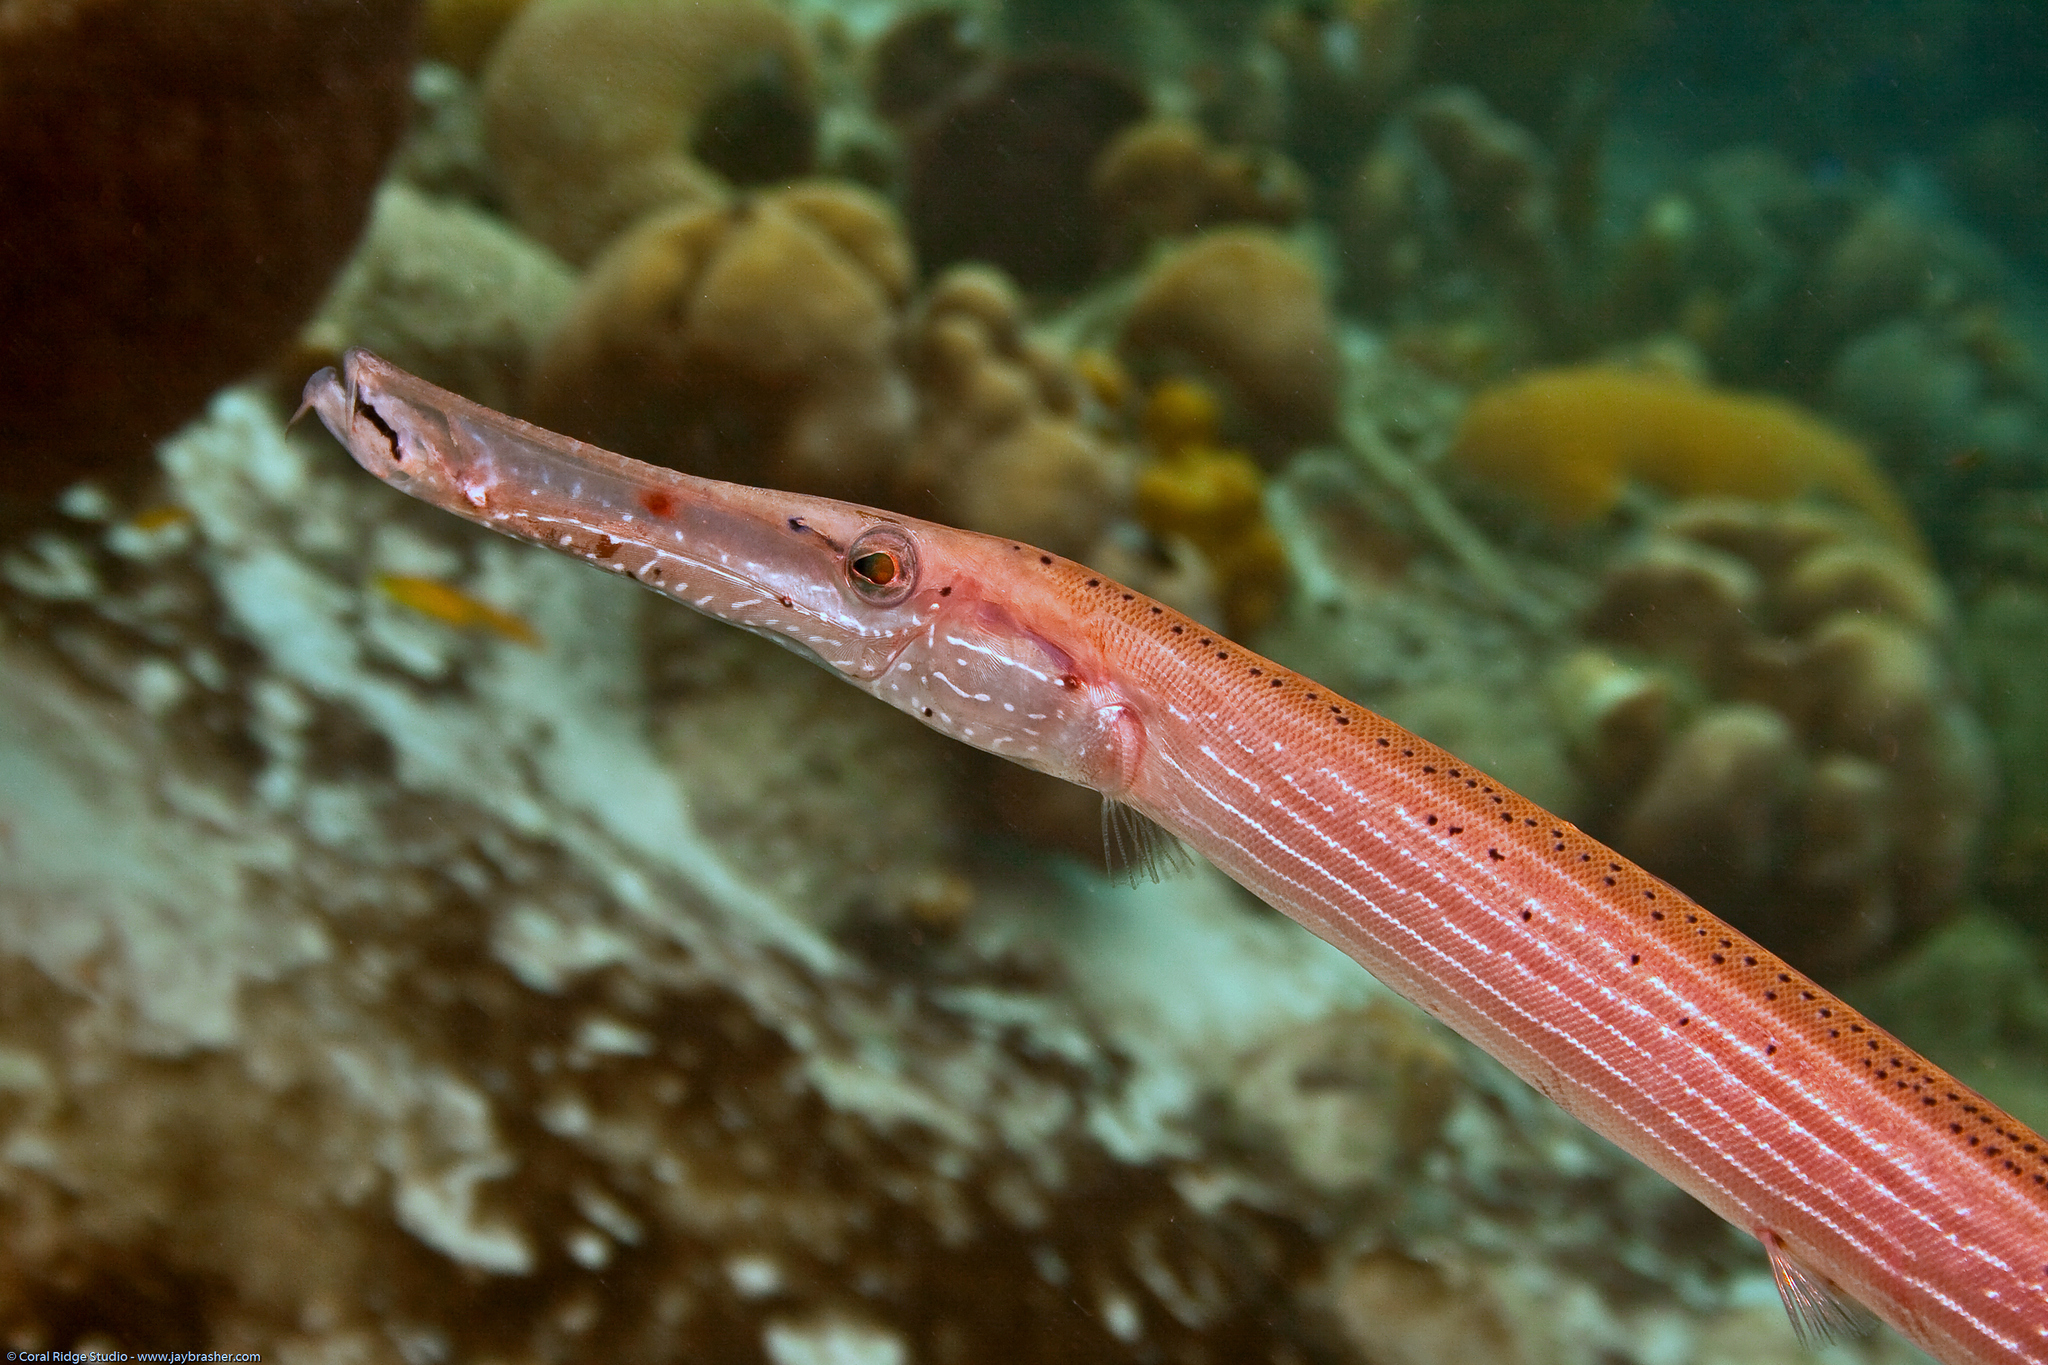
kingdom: Animalia
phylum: Chordata
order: Syngnathiformes
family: Aulostomidae
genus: Aulostomus
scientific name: Aulostomus maculatus
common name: West atlantic trumpetfish
